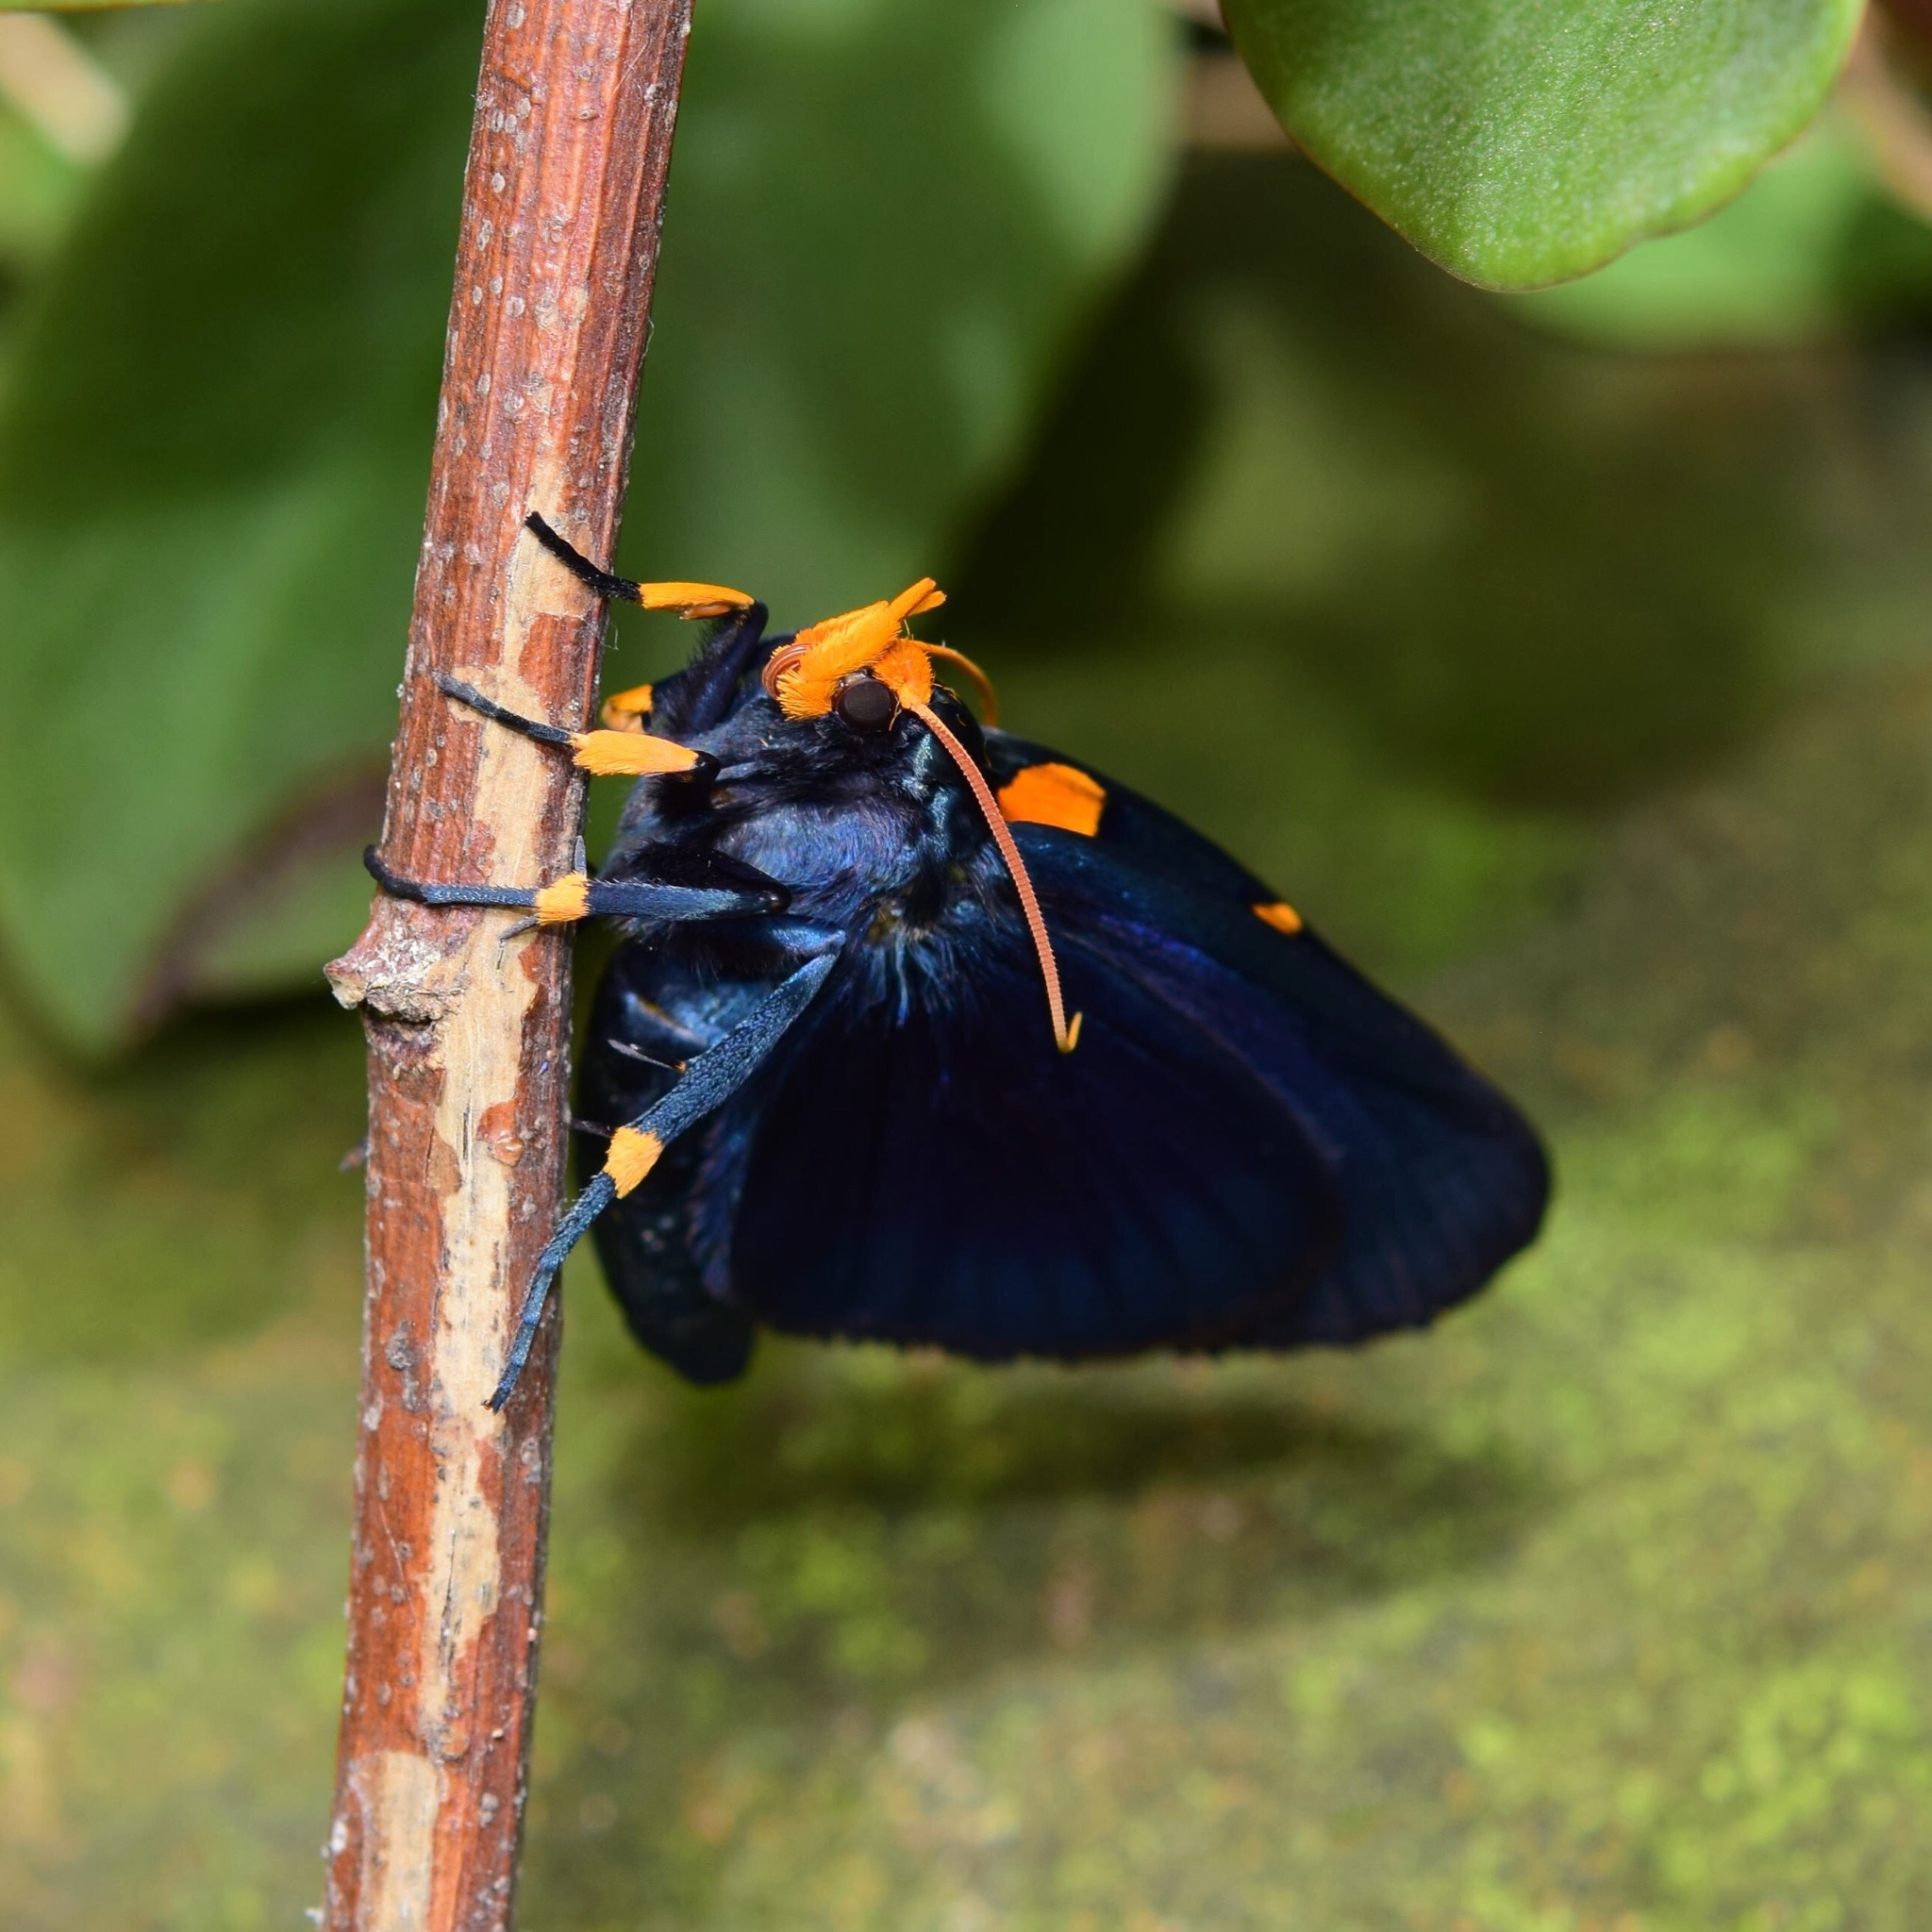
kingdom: Animalia
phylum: Arthropoda
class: Insecta
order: Lepidoptera
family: Erebidae
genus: Egybolis
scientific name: Egybolis vaillantina
